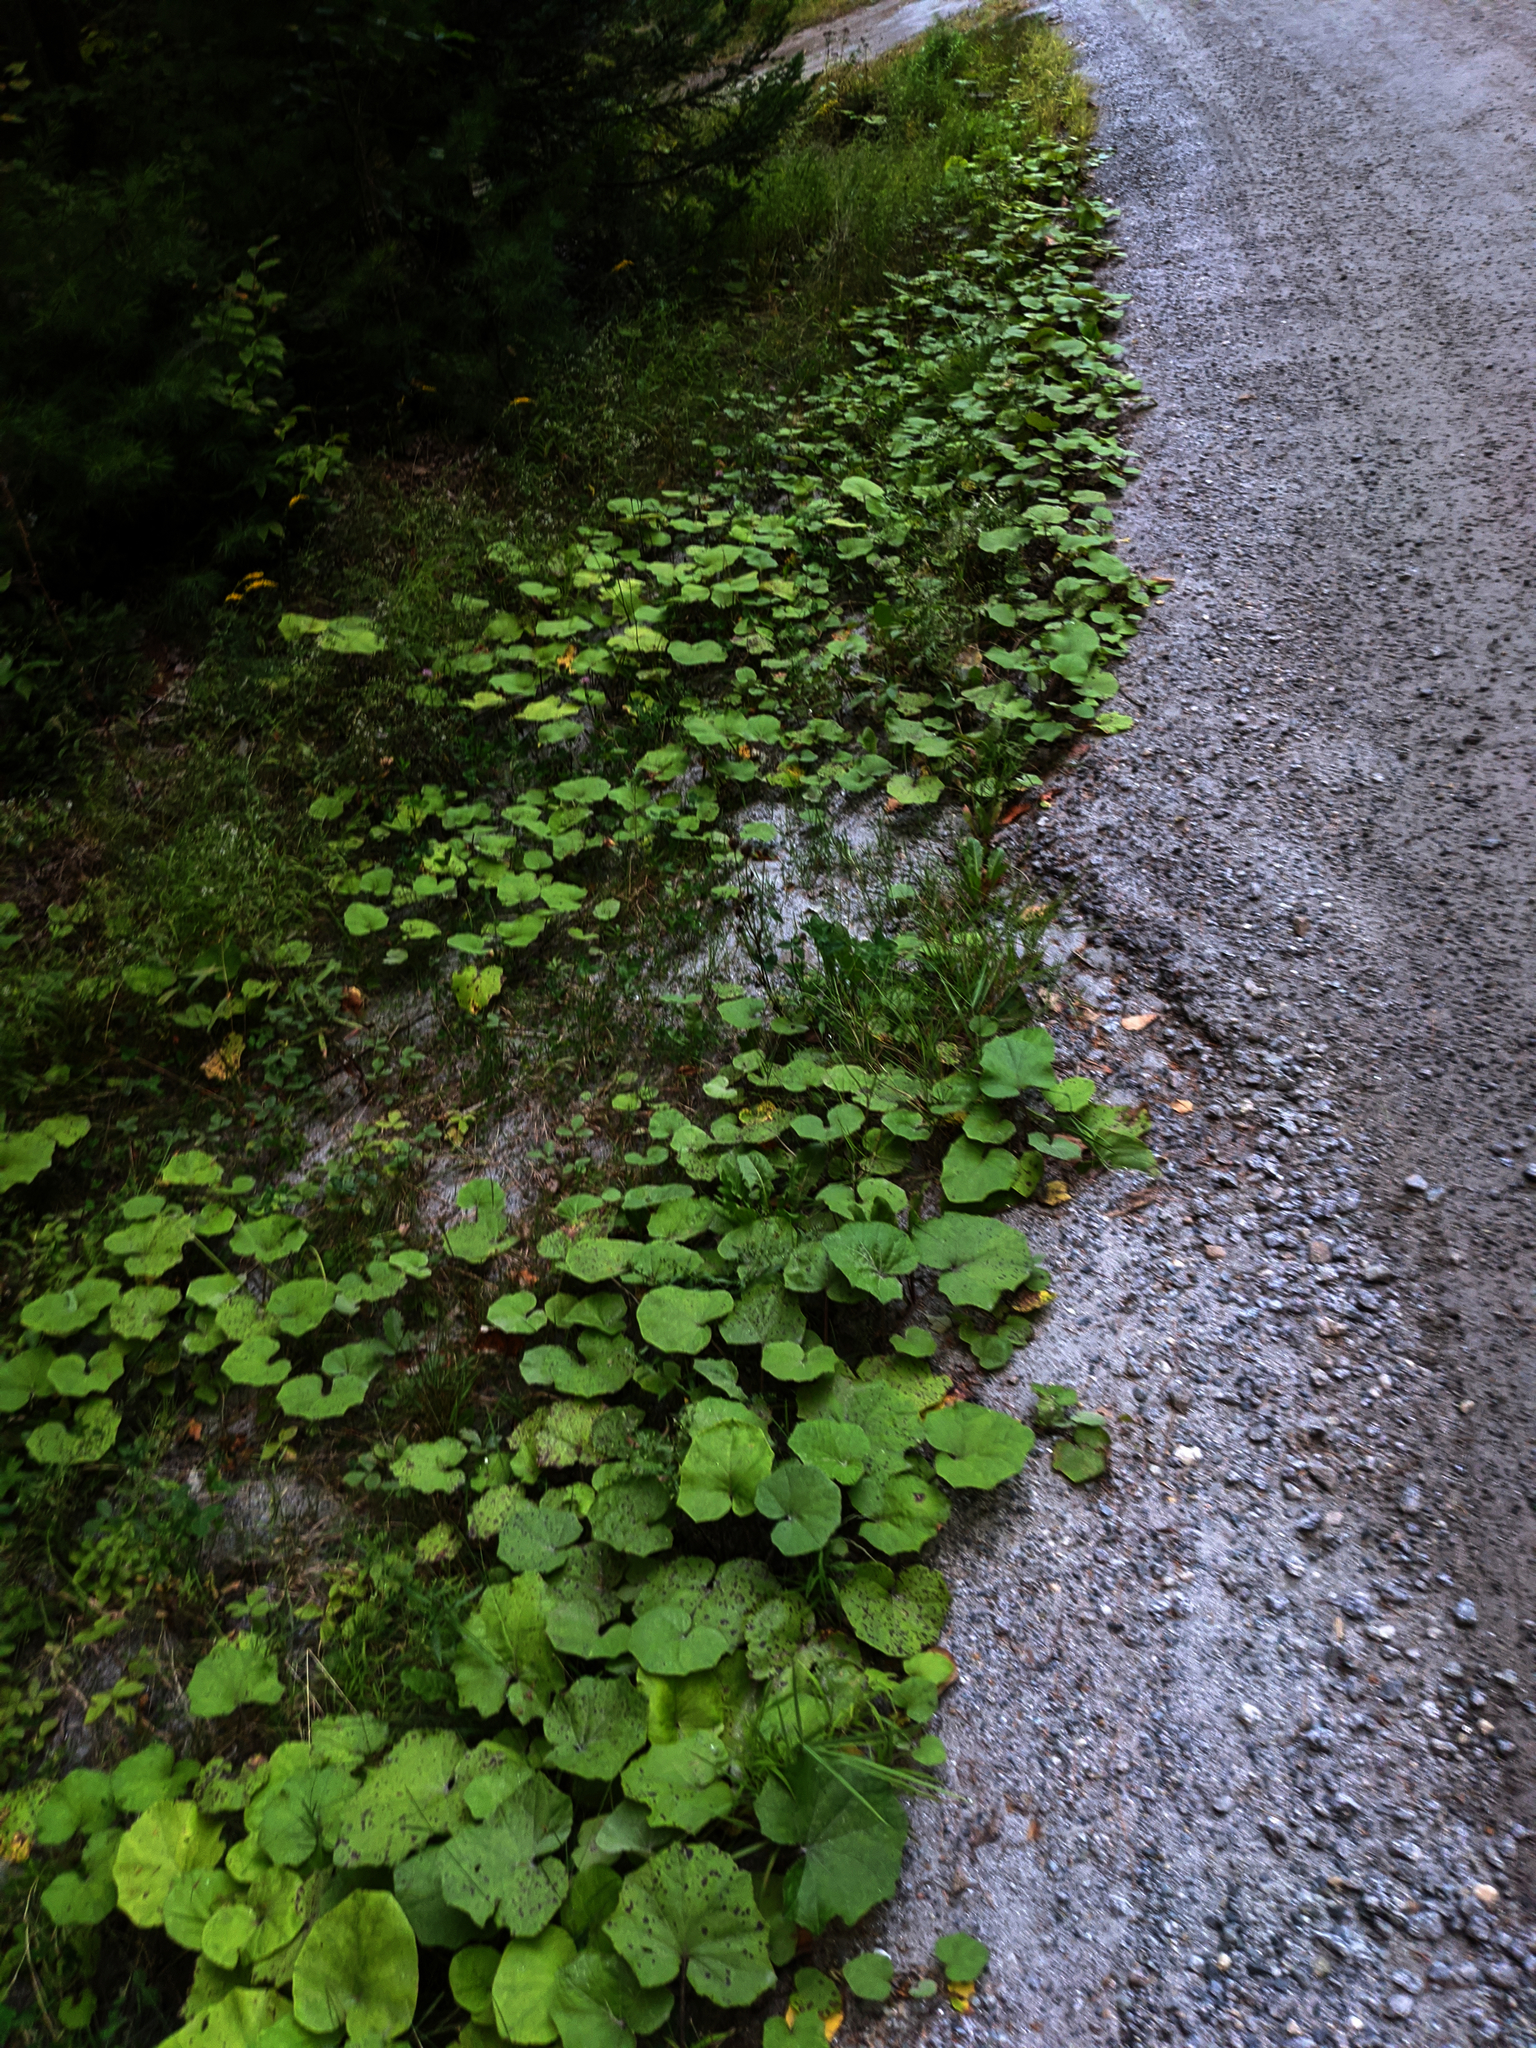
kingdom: Plantae
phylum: Tracheophyta
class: Magnoliopsida
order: Asterales
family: Asteraceae
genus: Tussilago
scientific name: Tussilago farfara
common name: Coltsfoot
